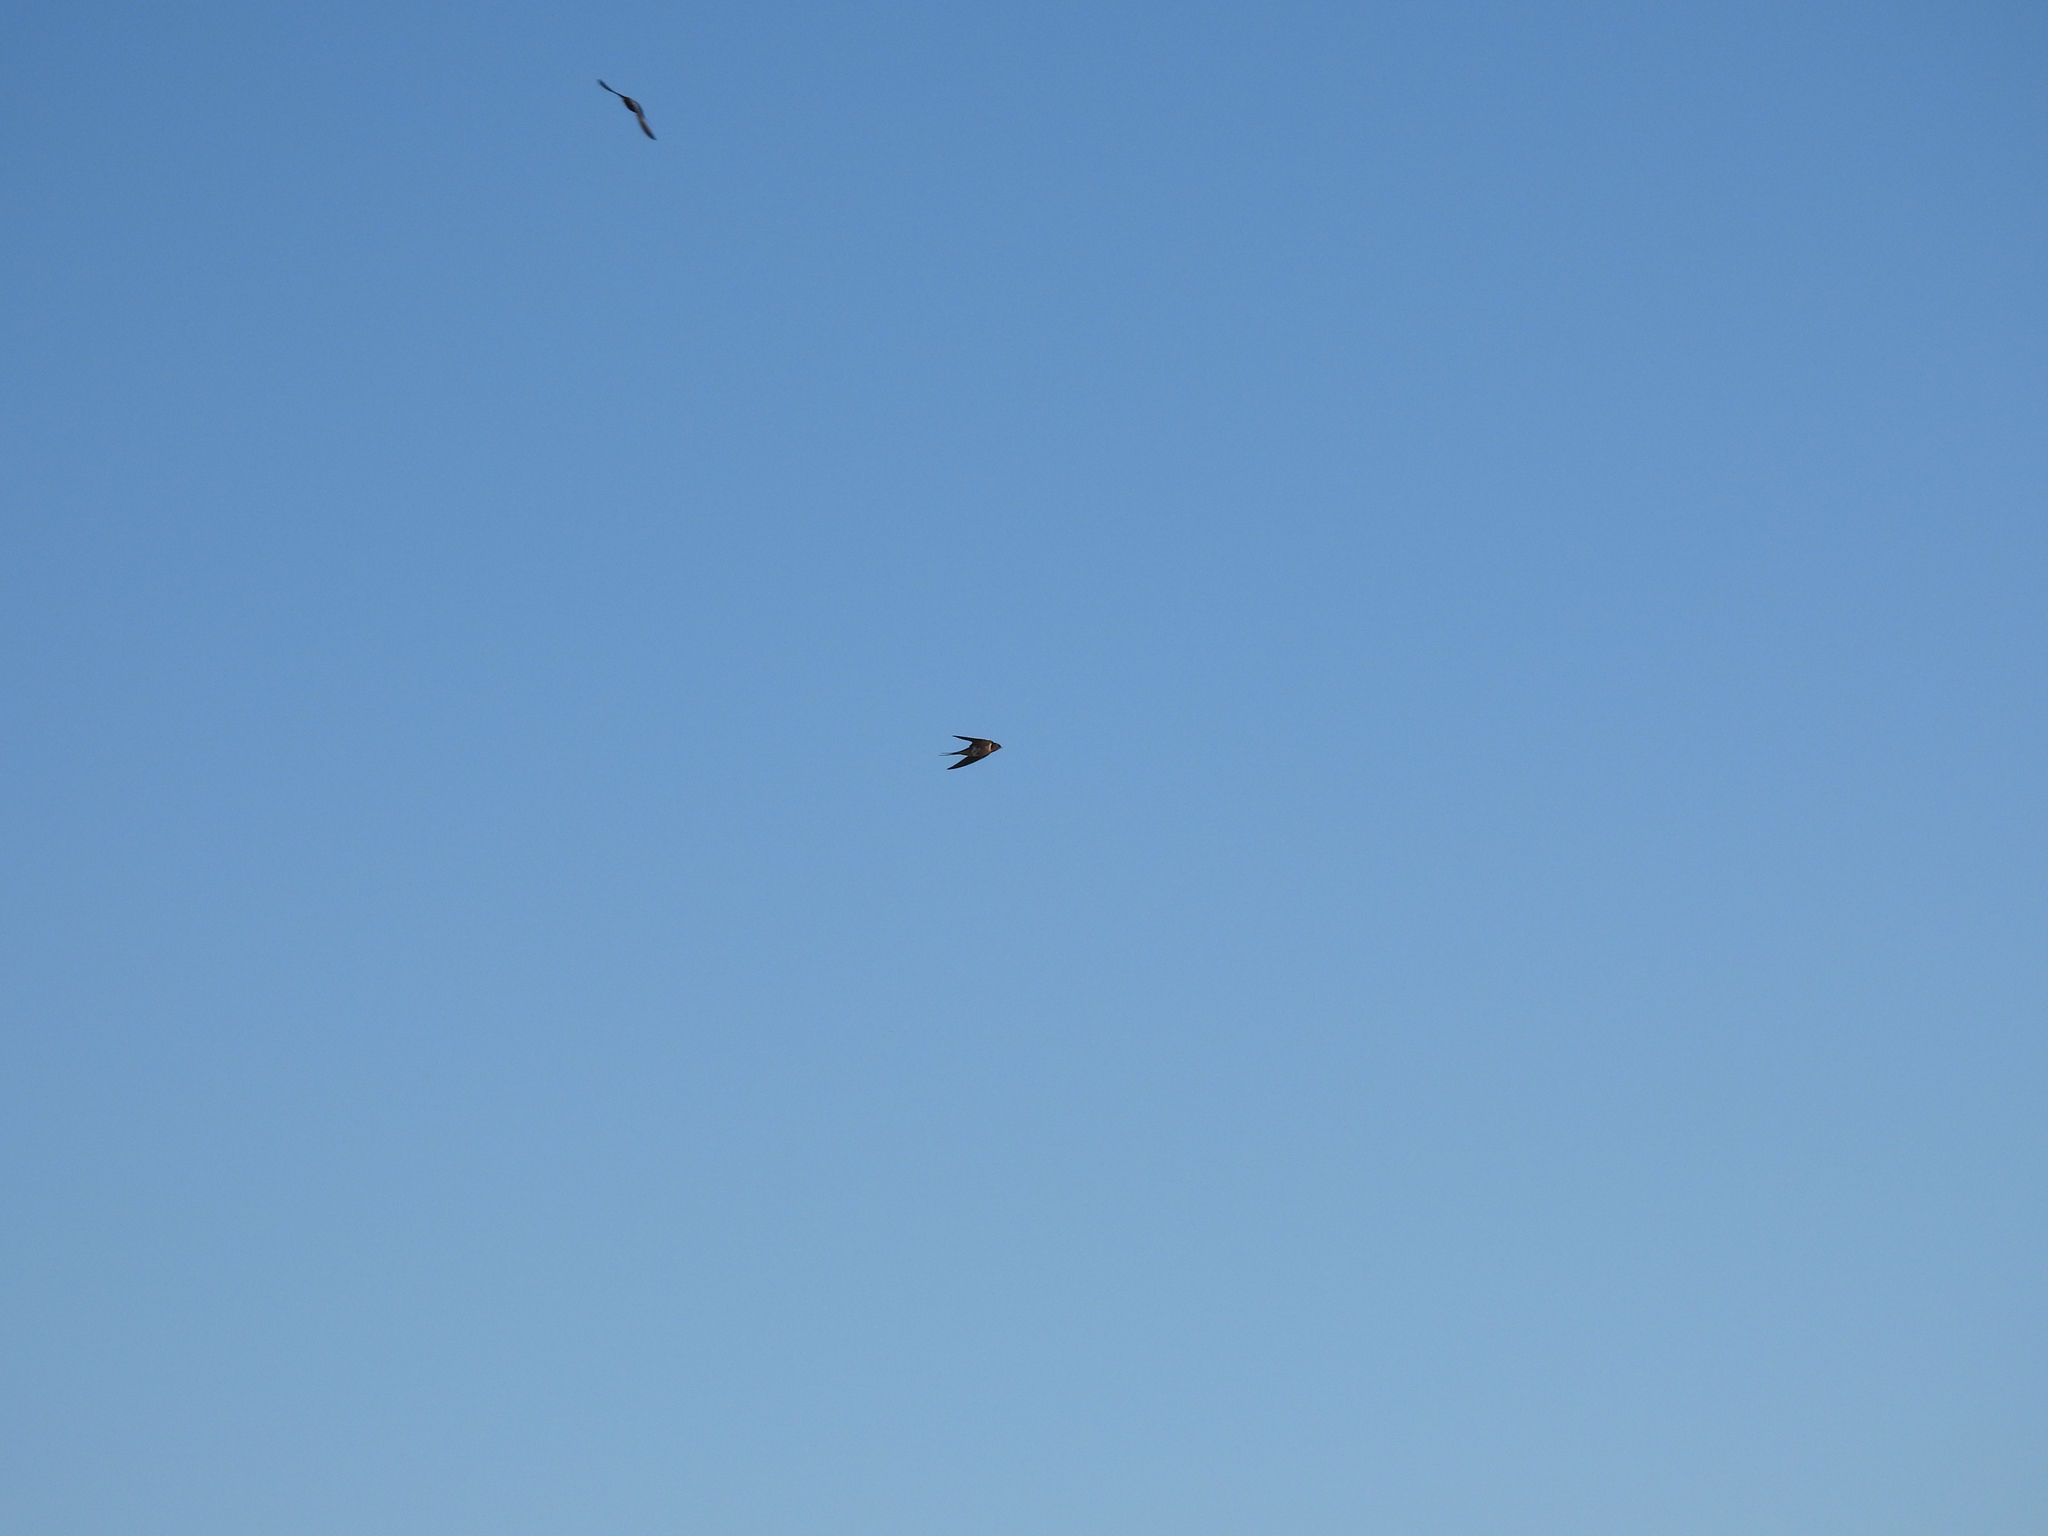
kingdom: Animalia
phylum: Chordata
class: Aves
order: Passeriformes
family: Hirundinidae
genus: Hirundo
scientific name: Hirundo rustica
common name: Barn swallow
